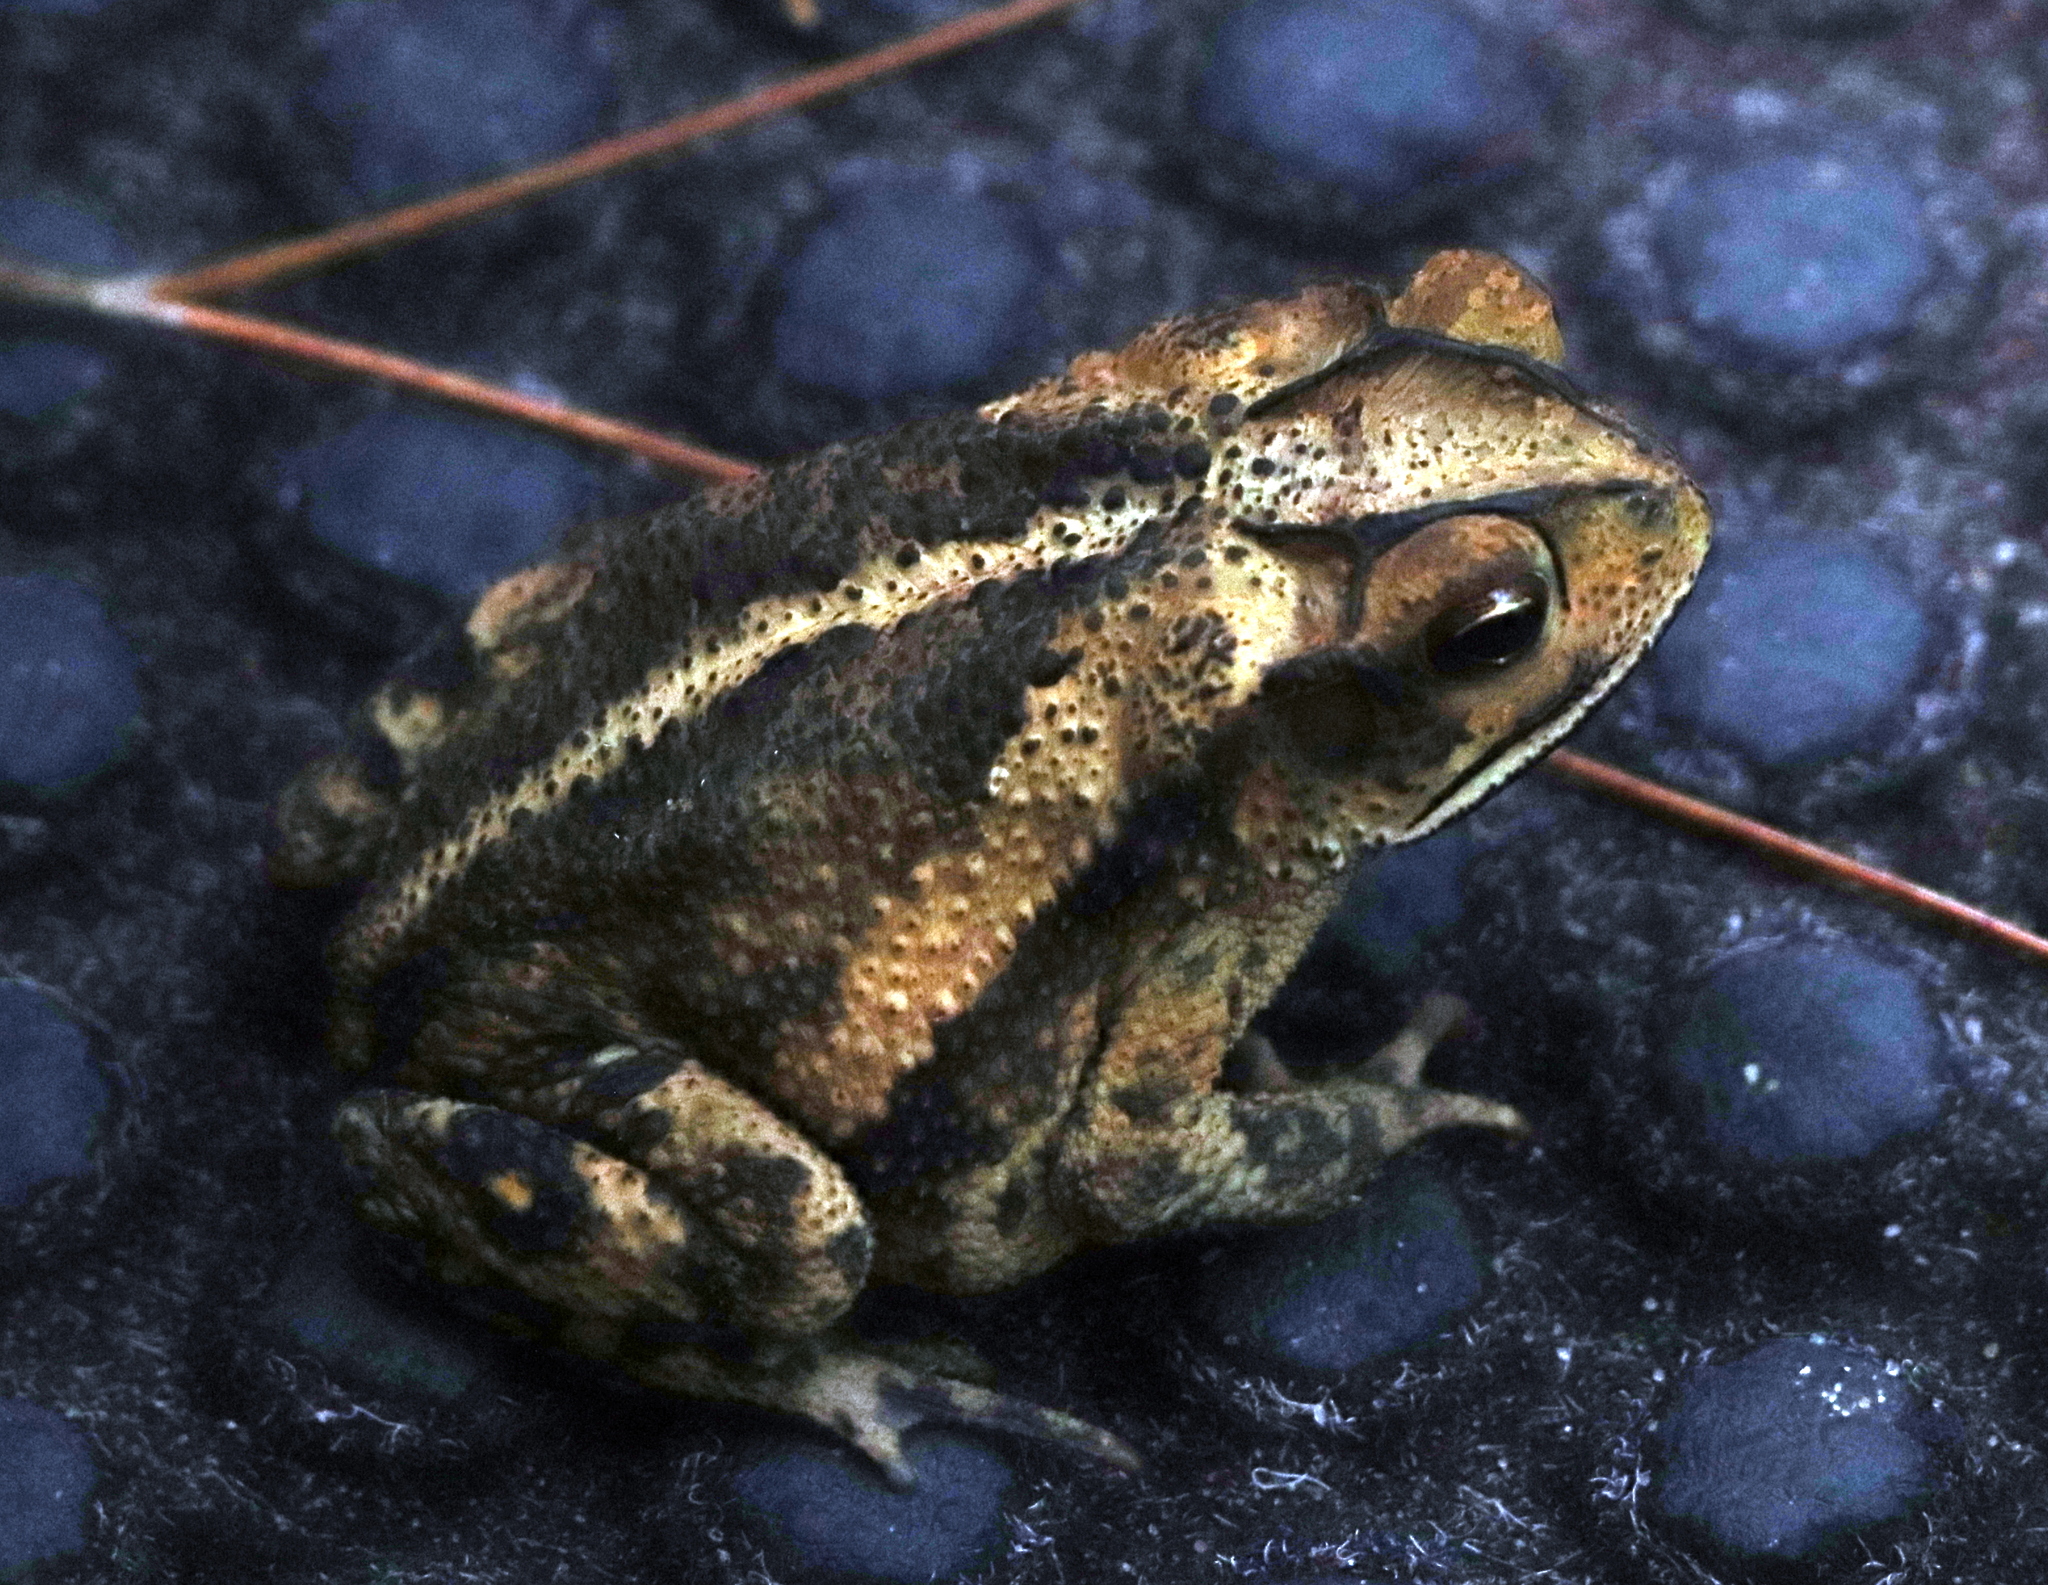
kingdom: Animalia
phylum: Chordata
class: Amphibia
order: Anura
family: Bufonidae
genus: Incilius
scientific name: Incilius nebulifer
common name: Gulf coast toad
